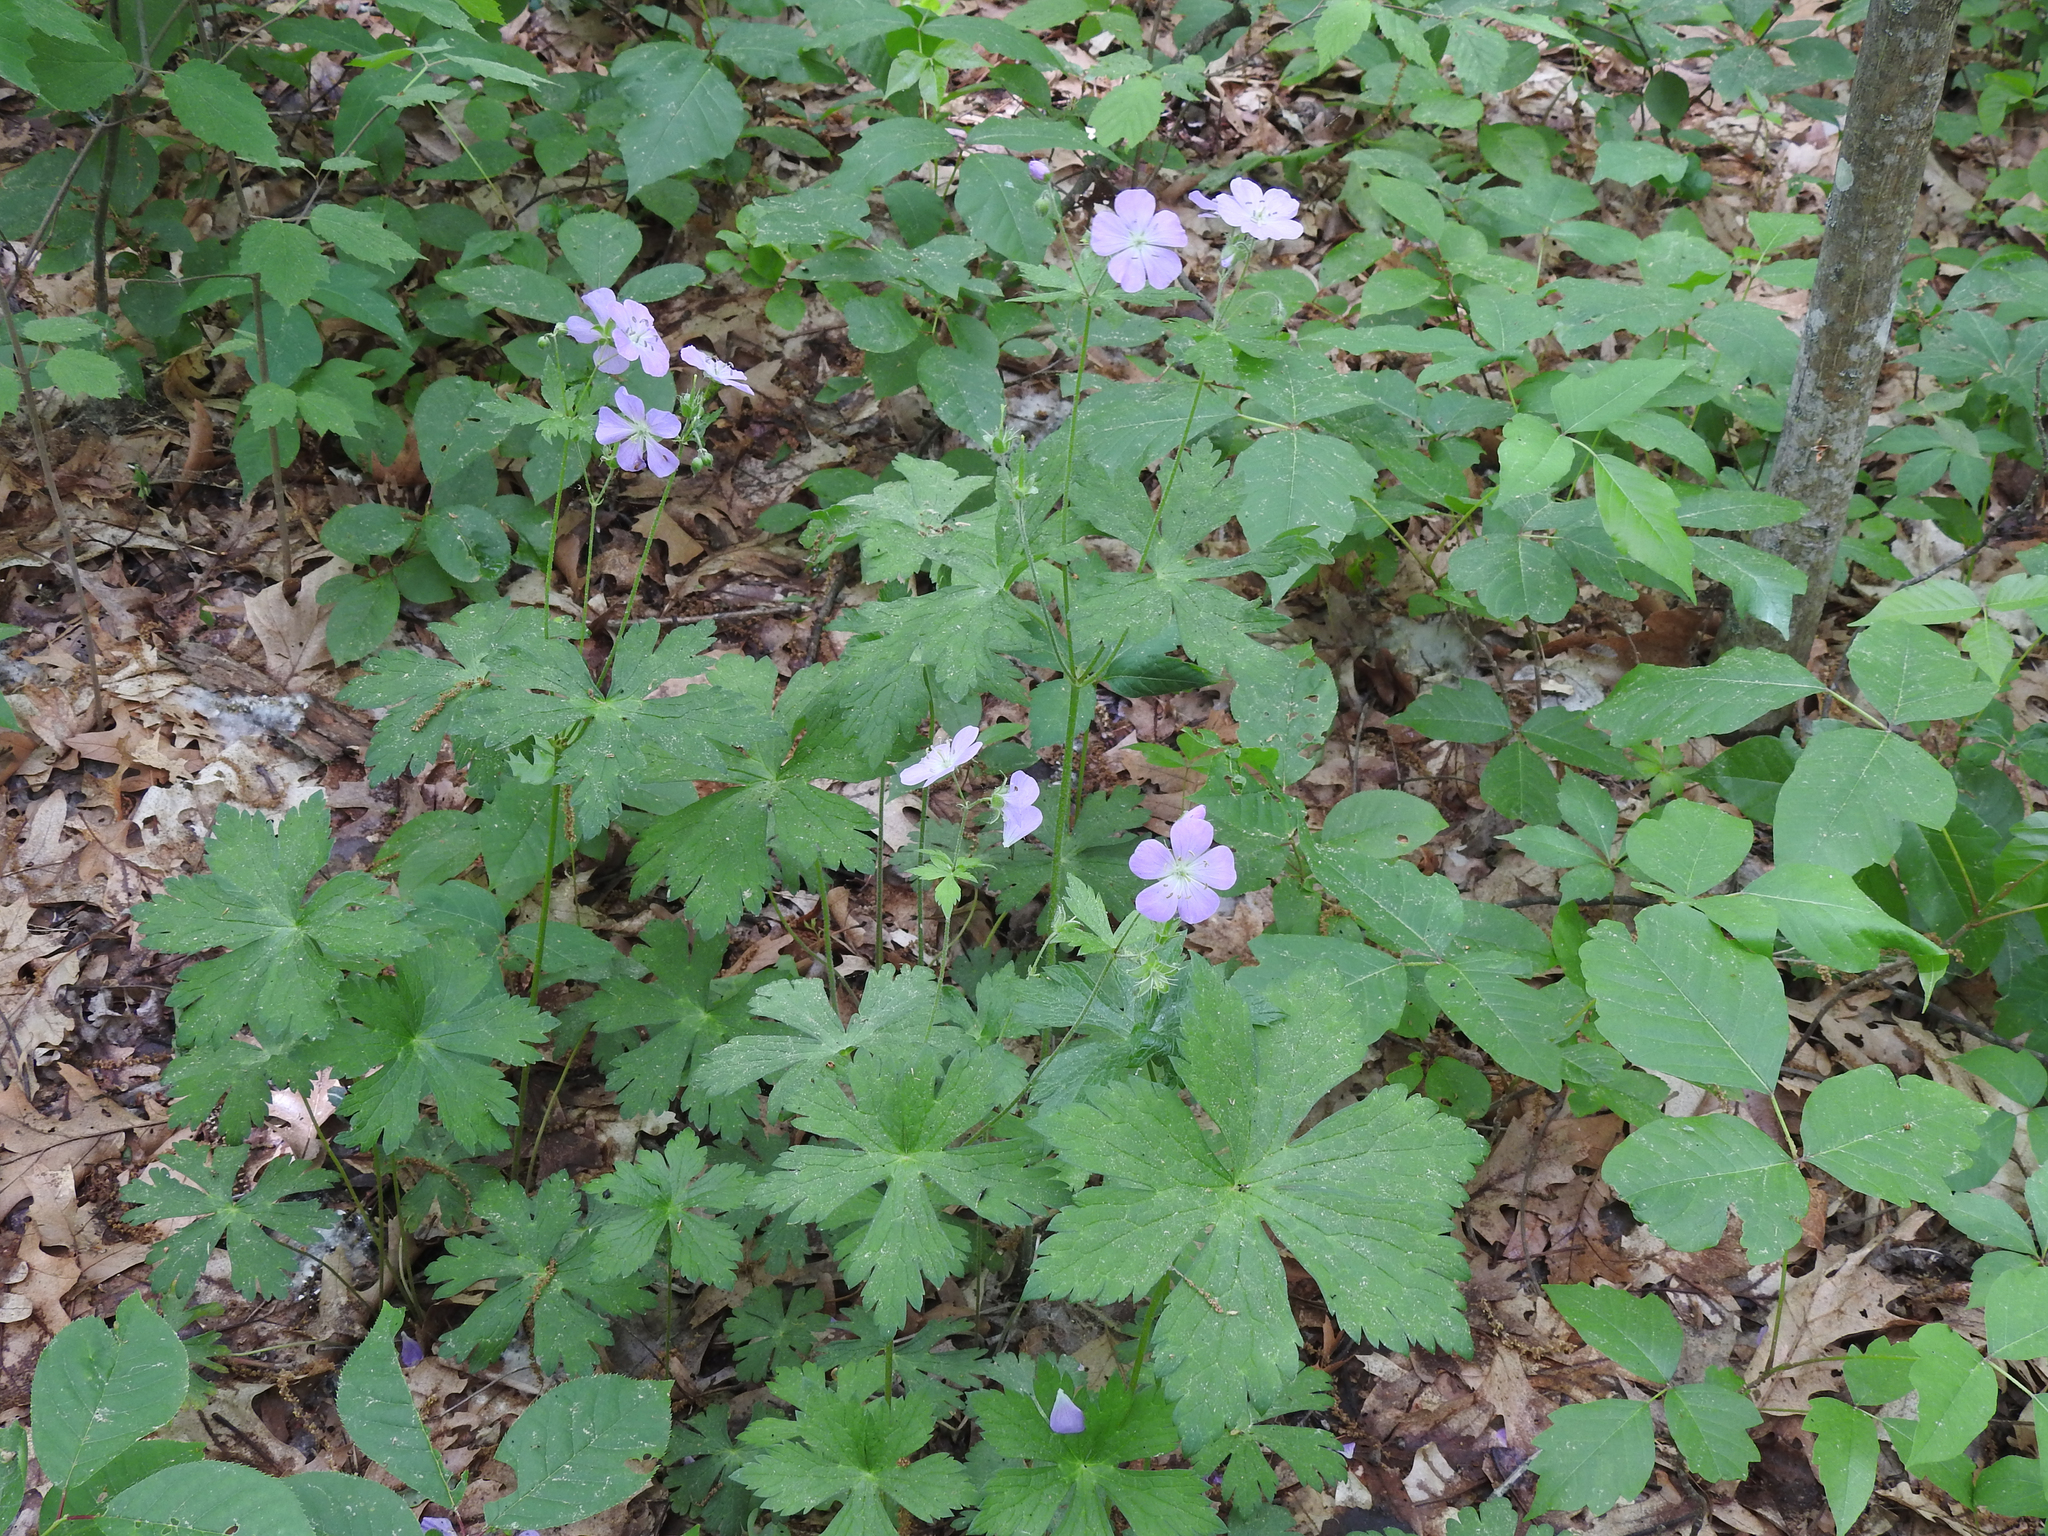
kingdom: Plantae
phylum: Tracheophyta
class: Magnoliopsida
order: Geraniales
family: Geraniaceae
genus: Geranium
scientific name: Geranium maculatum
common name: Spotted geranium
